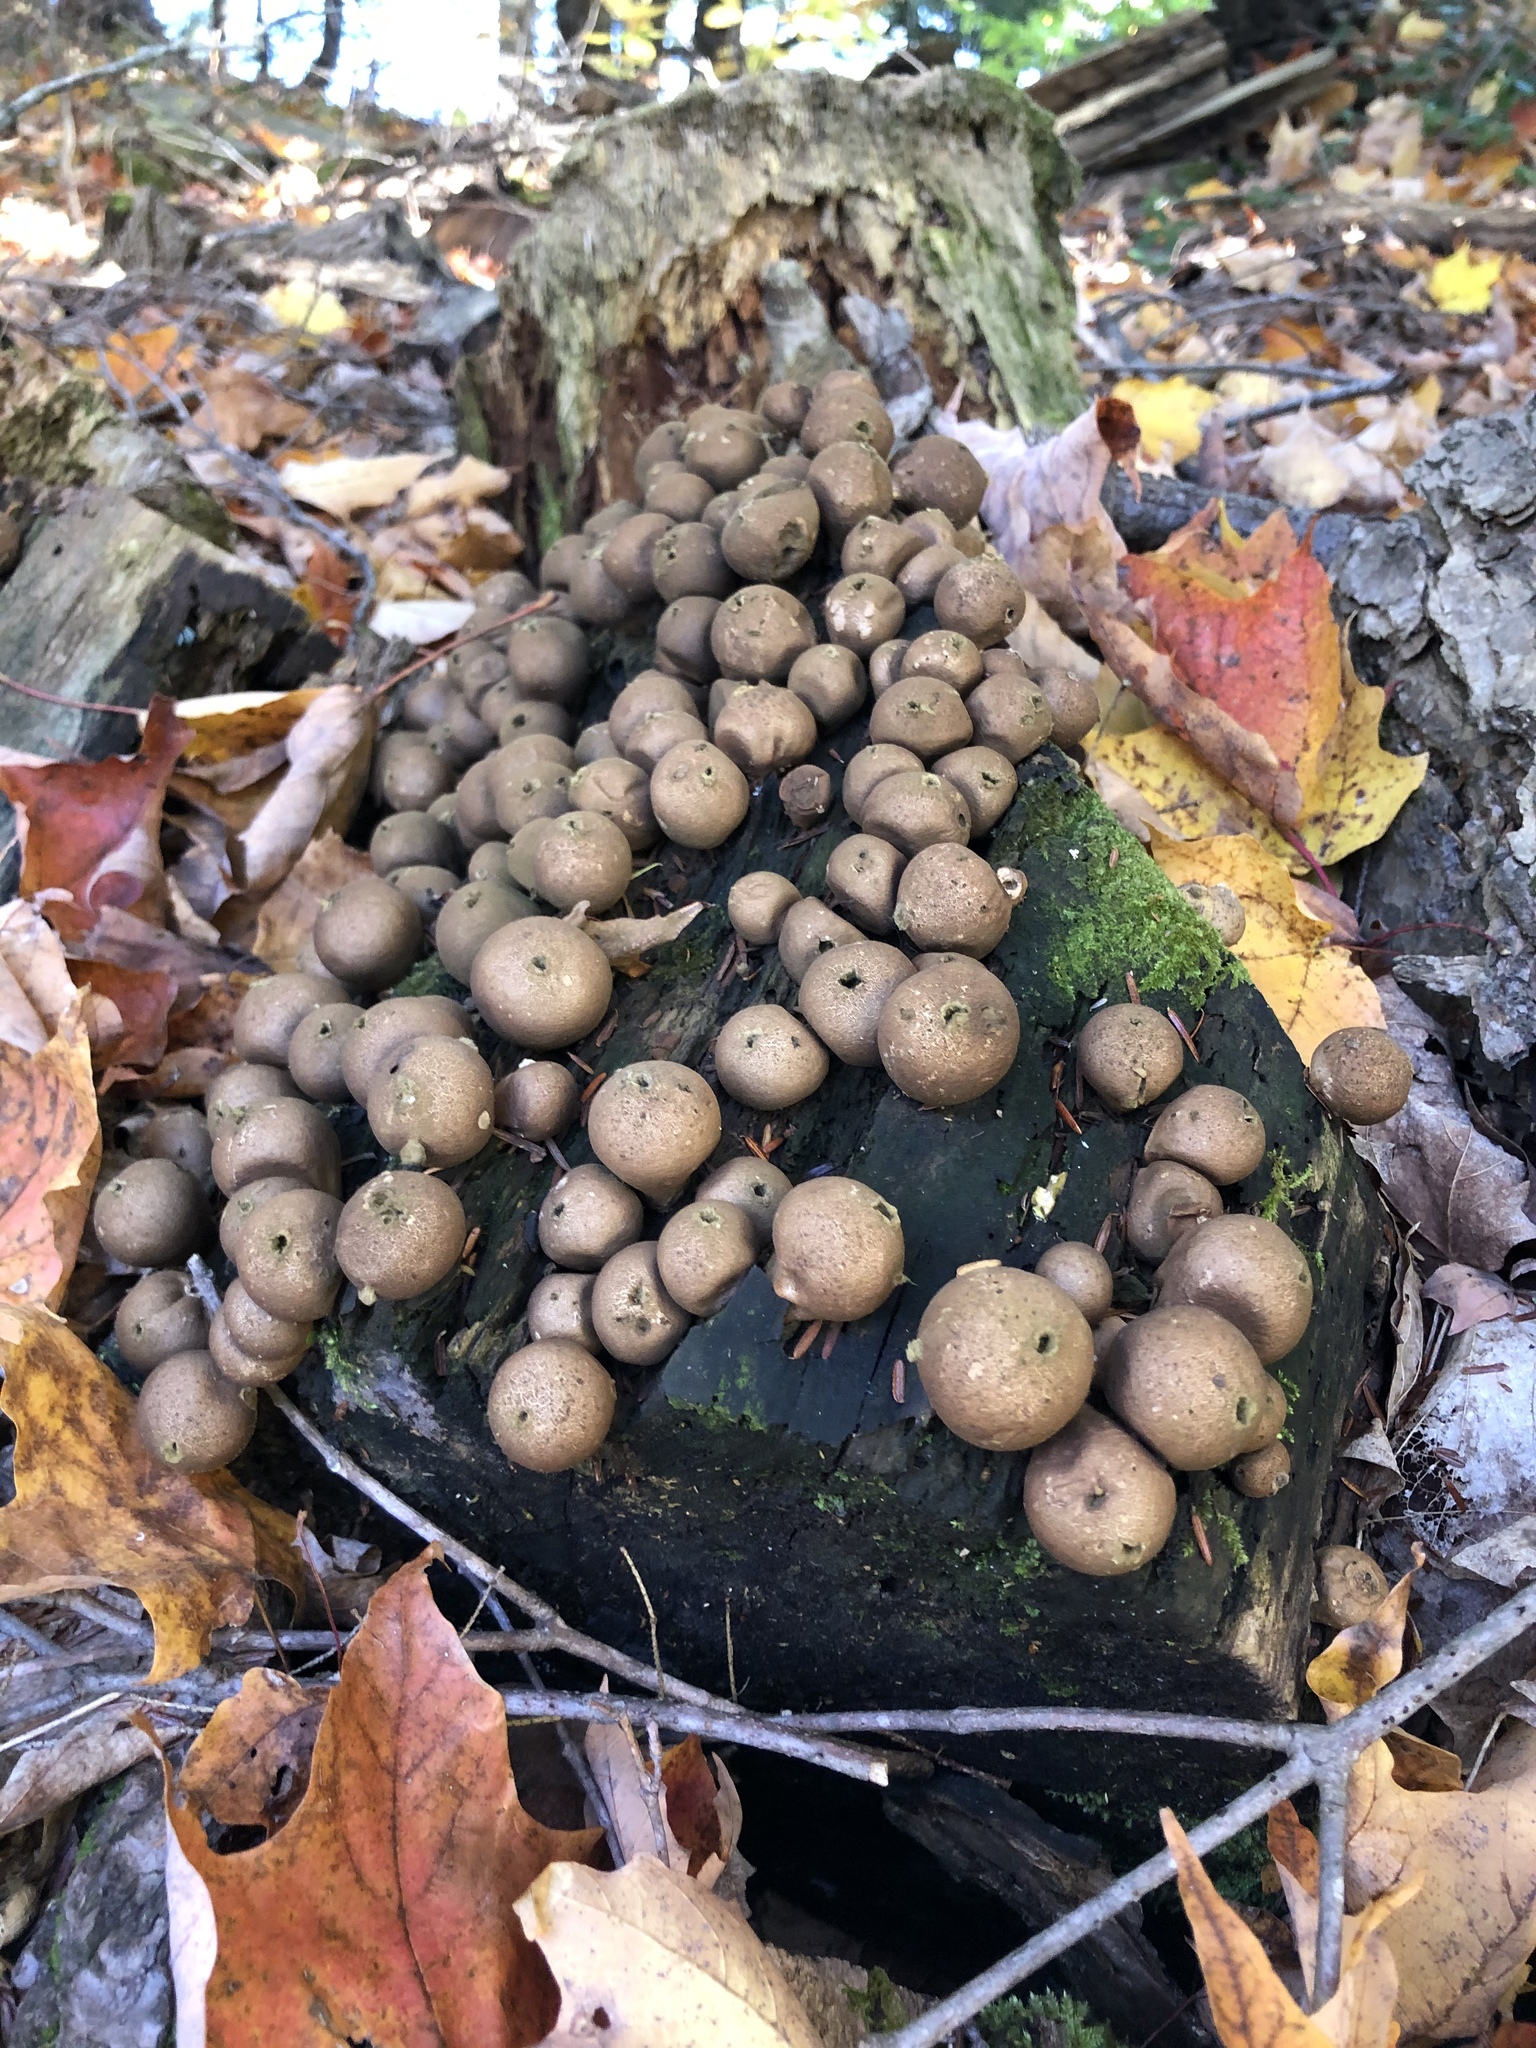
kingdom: Fungi
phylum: Basidiomycota
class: Agaricomycetes
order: Agaricales
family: Lycoperdaceae
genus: Apioperdon
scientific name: Apioperdon pyriforme
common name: Pear-shaped puffball
